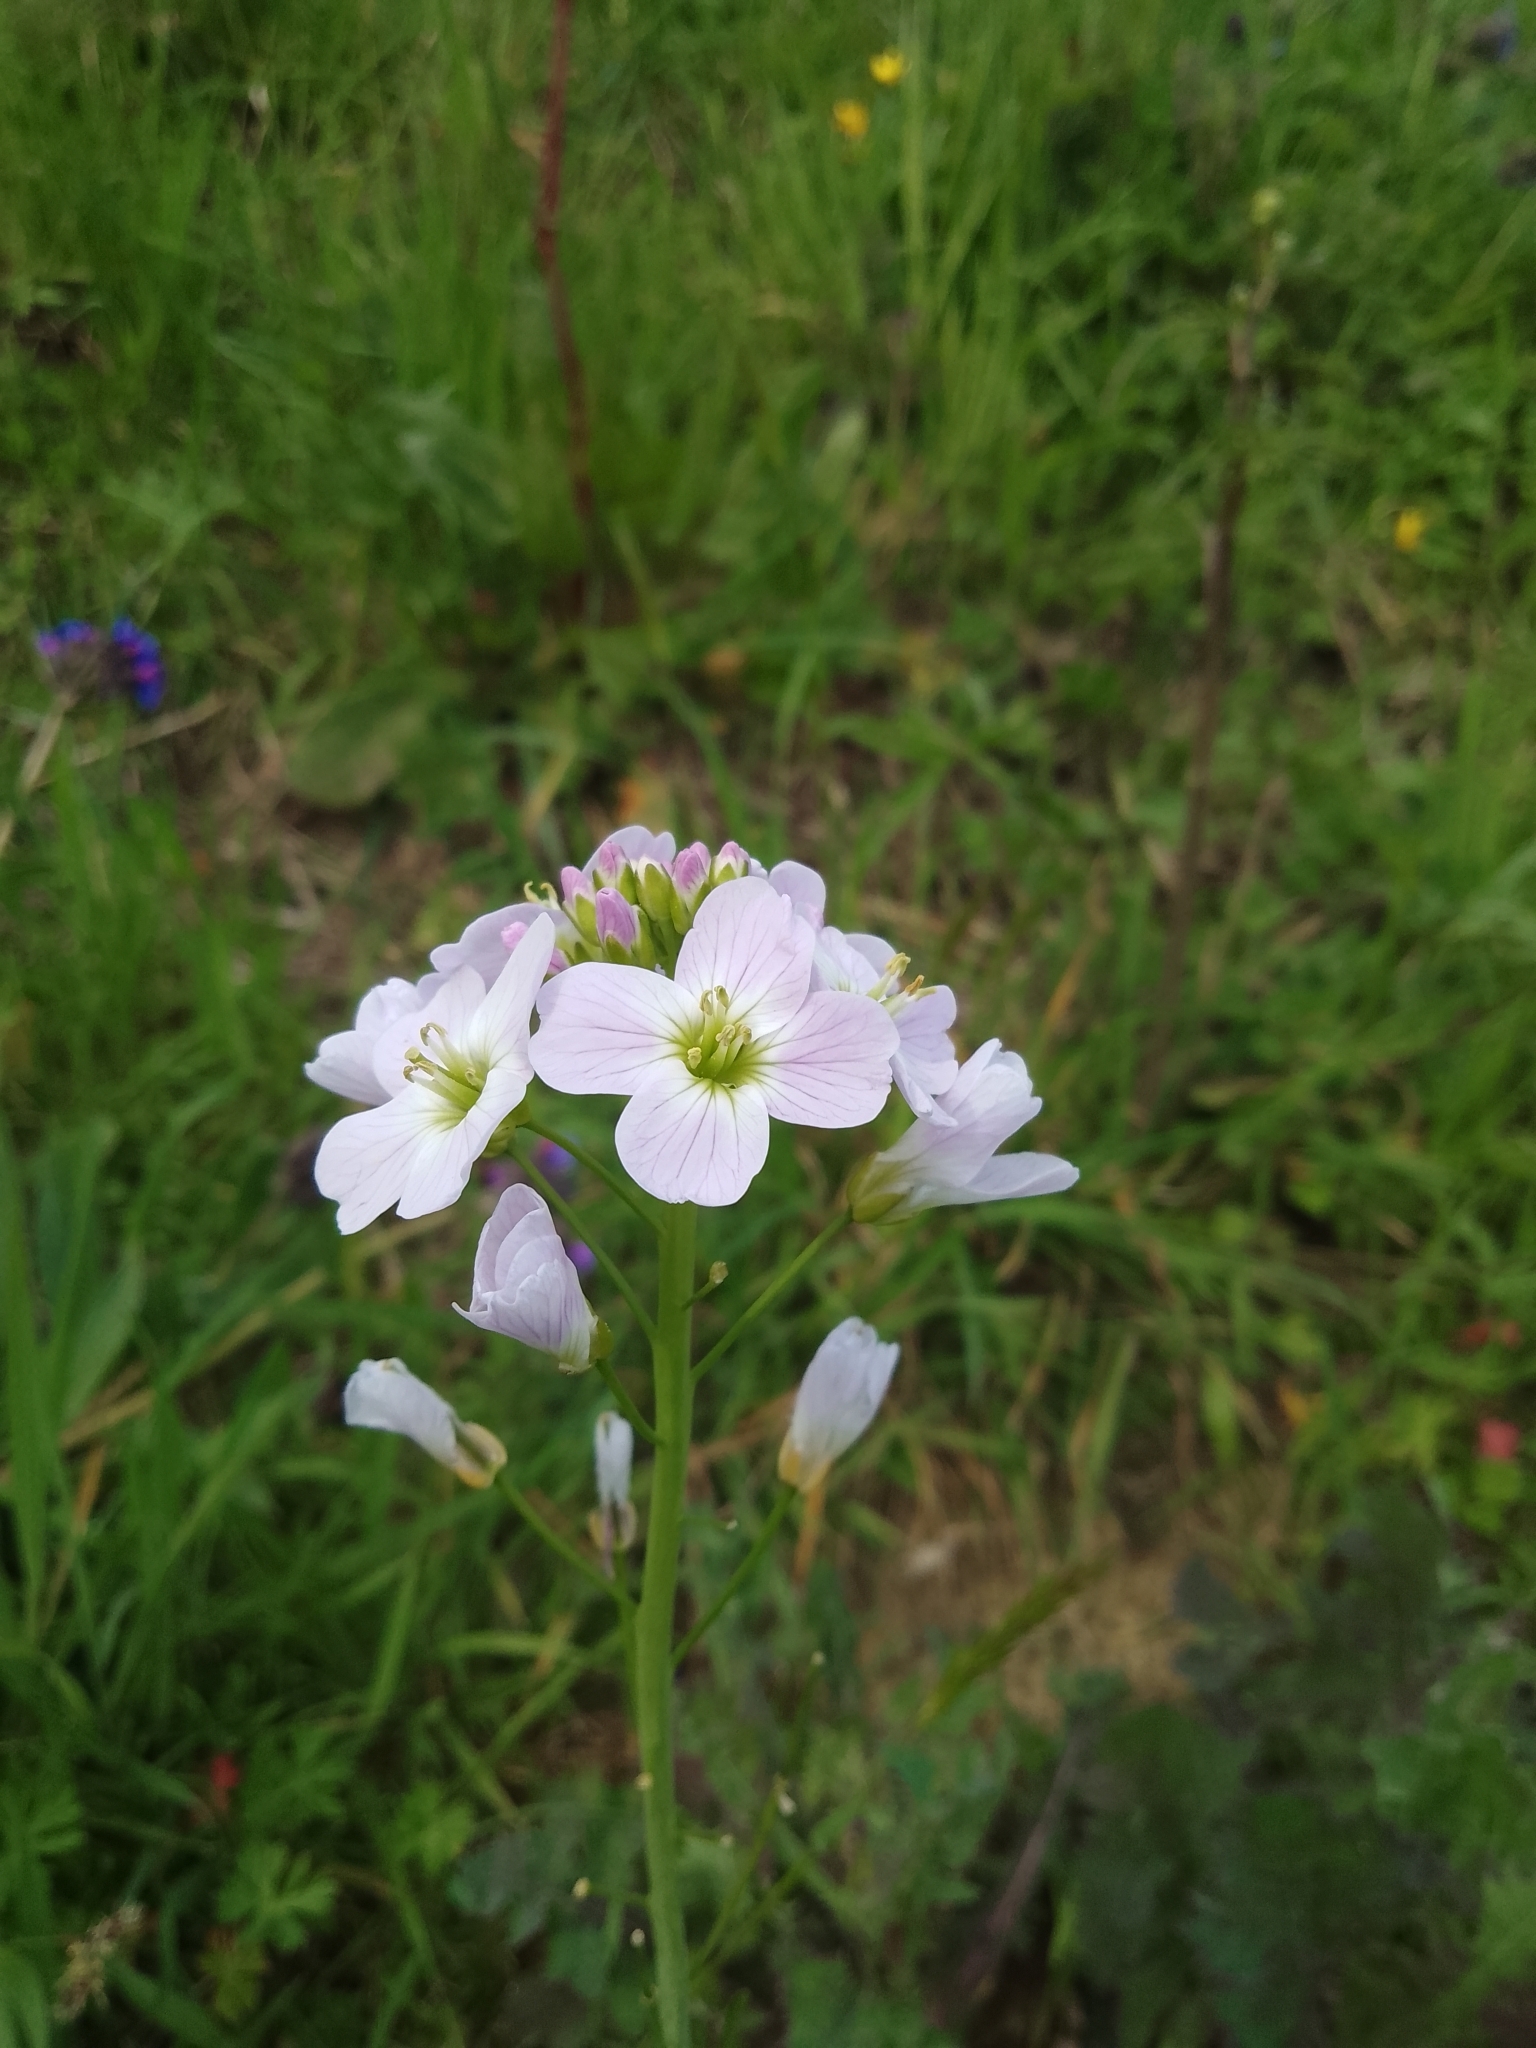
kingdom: Plantae
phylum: Tracheophyta
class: Magnoliopsida
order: Brassicales
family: Brassicaceae
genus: Cardamine
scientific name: Cardamine pratensis
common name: Cuckoo flower
